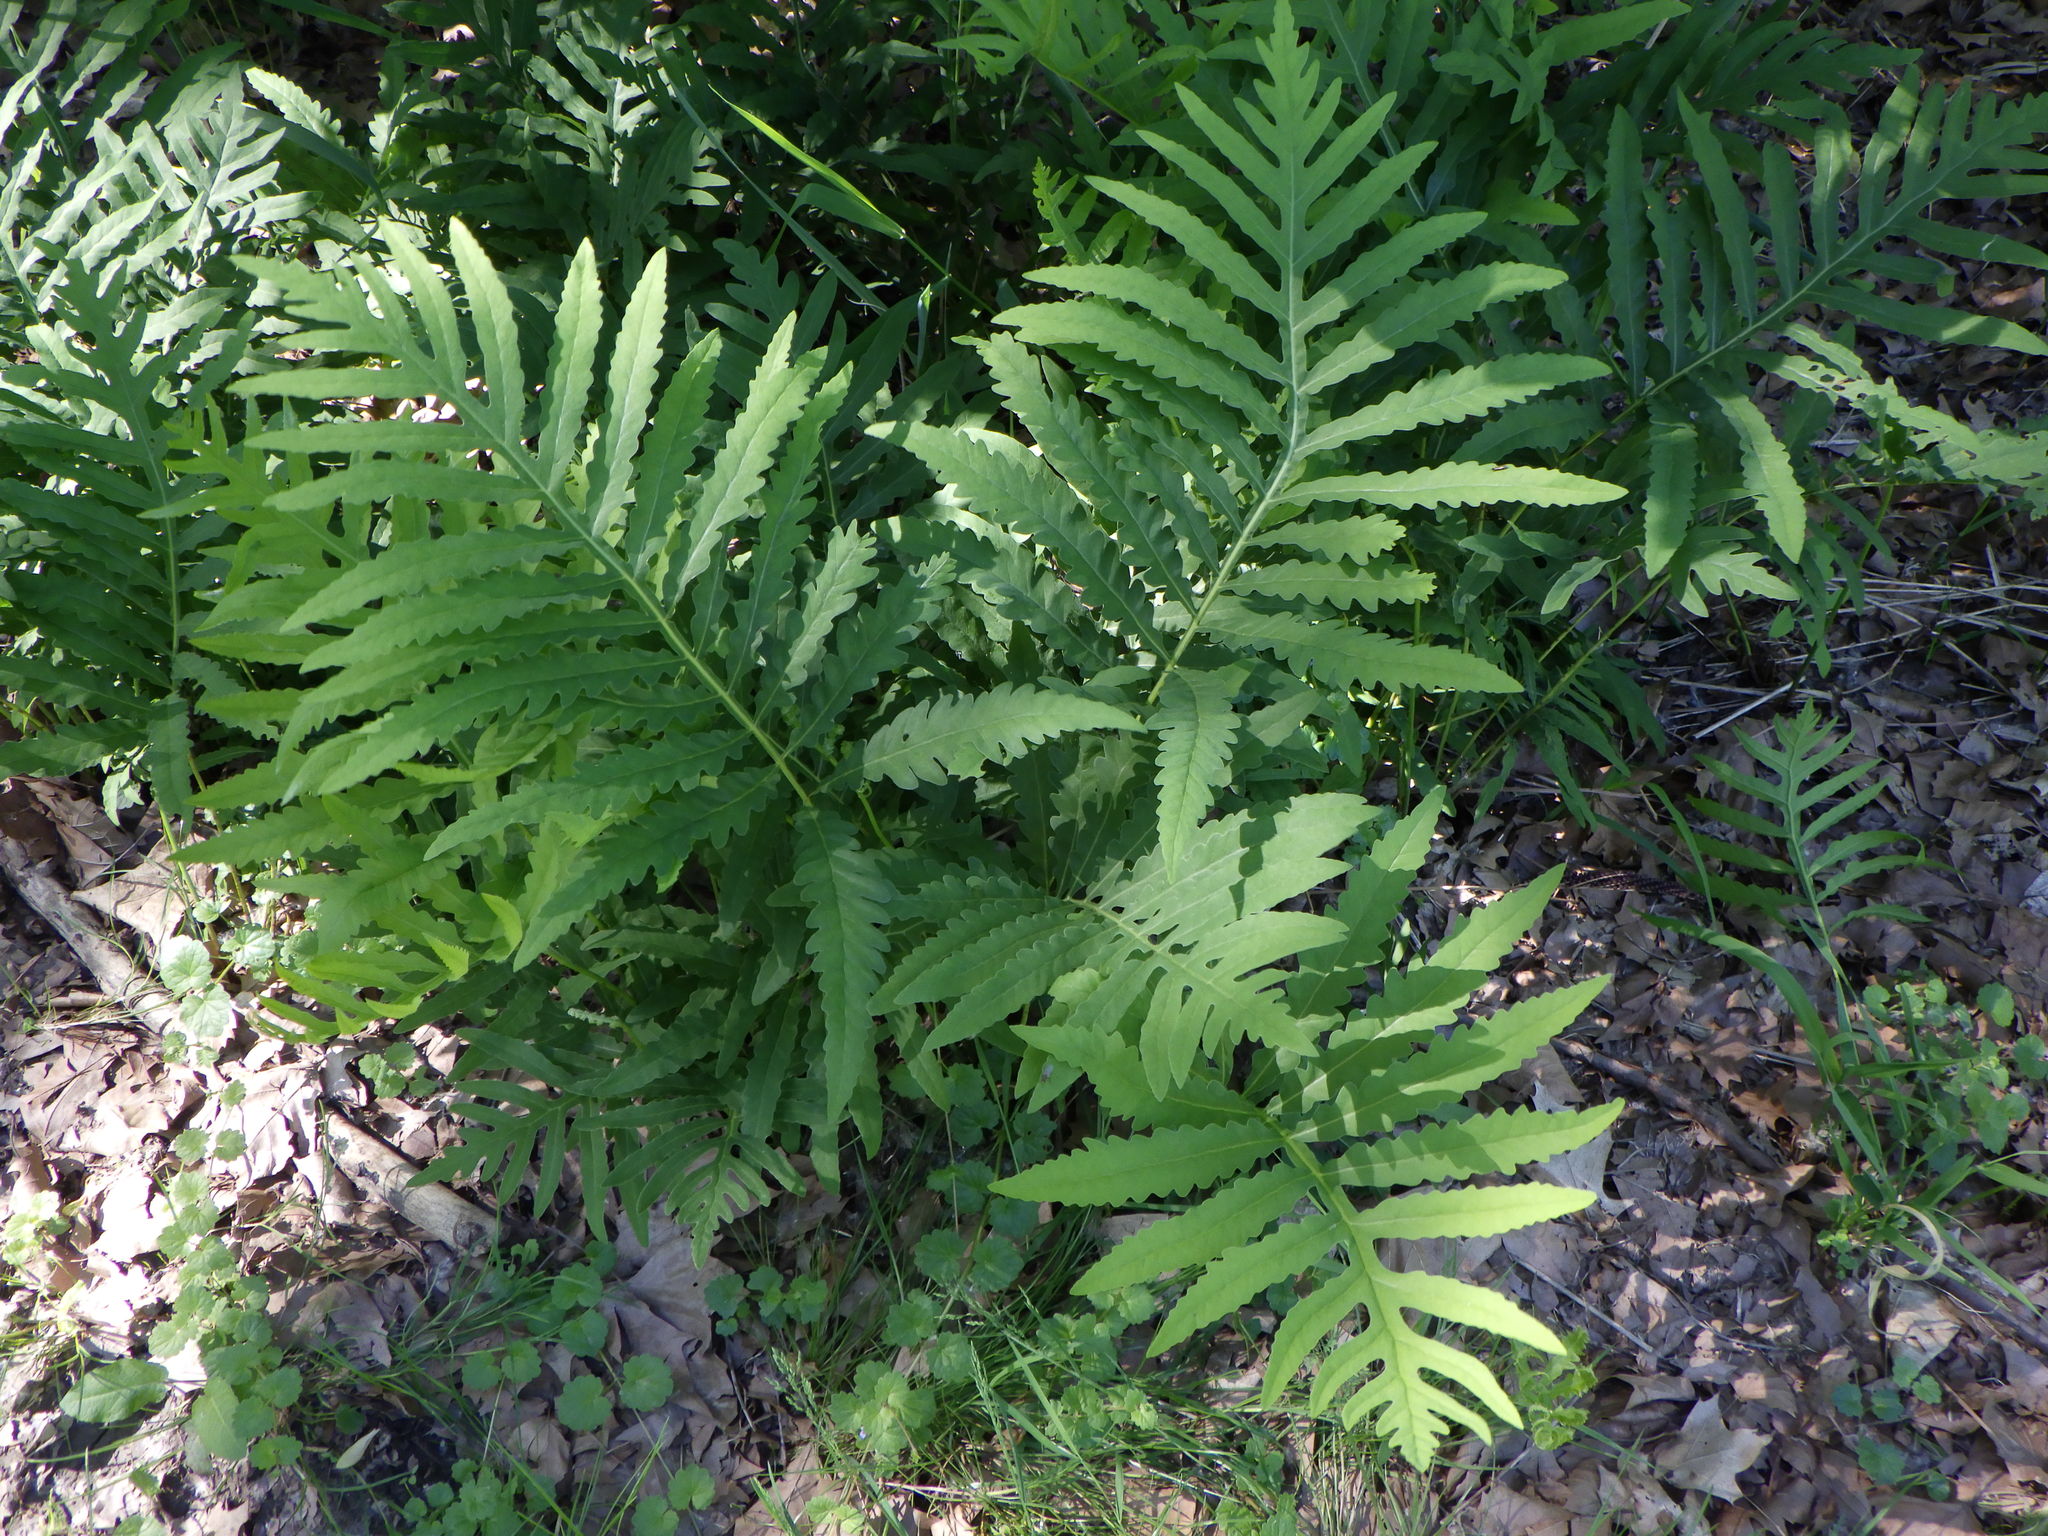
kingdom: Plantae
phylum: Tracheophyta
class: Polypodiopsida
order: Polypodiales
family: Onocleaceae
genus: Onoclea
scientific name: Onoclea sensibilis
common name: Sensitive fern
